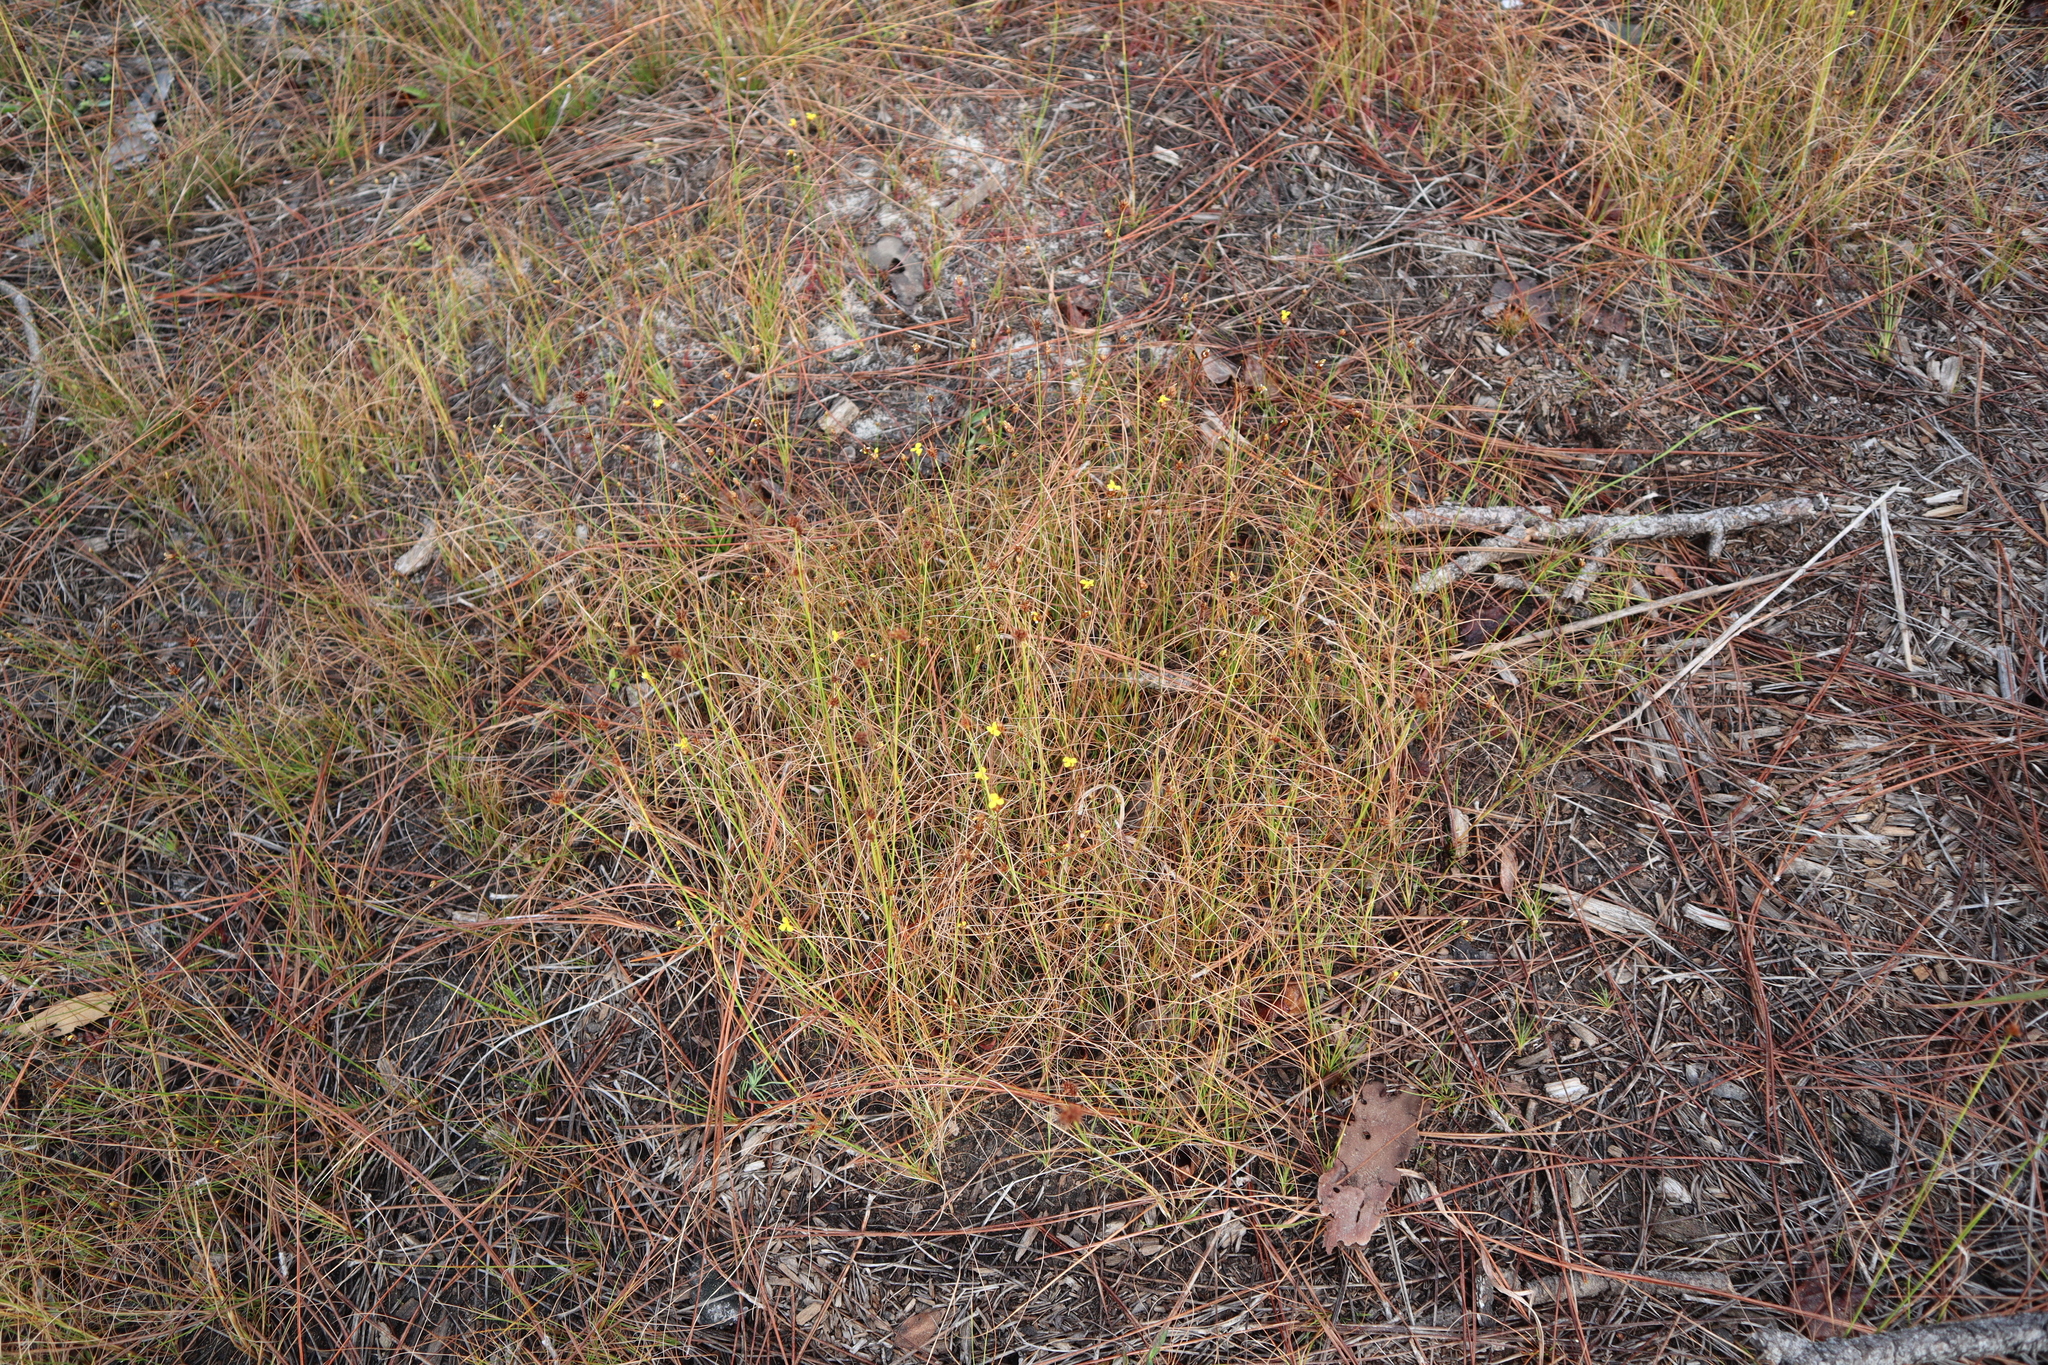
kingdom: Plantae
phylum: Tracheophyta
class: Liliopsida
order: Poales
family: Xyridaceae
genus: Xyris
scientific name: Xyris brevifolia
